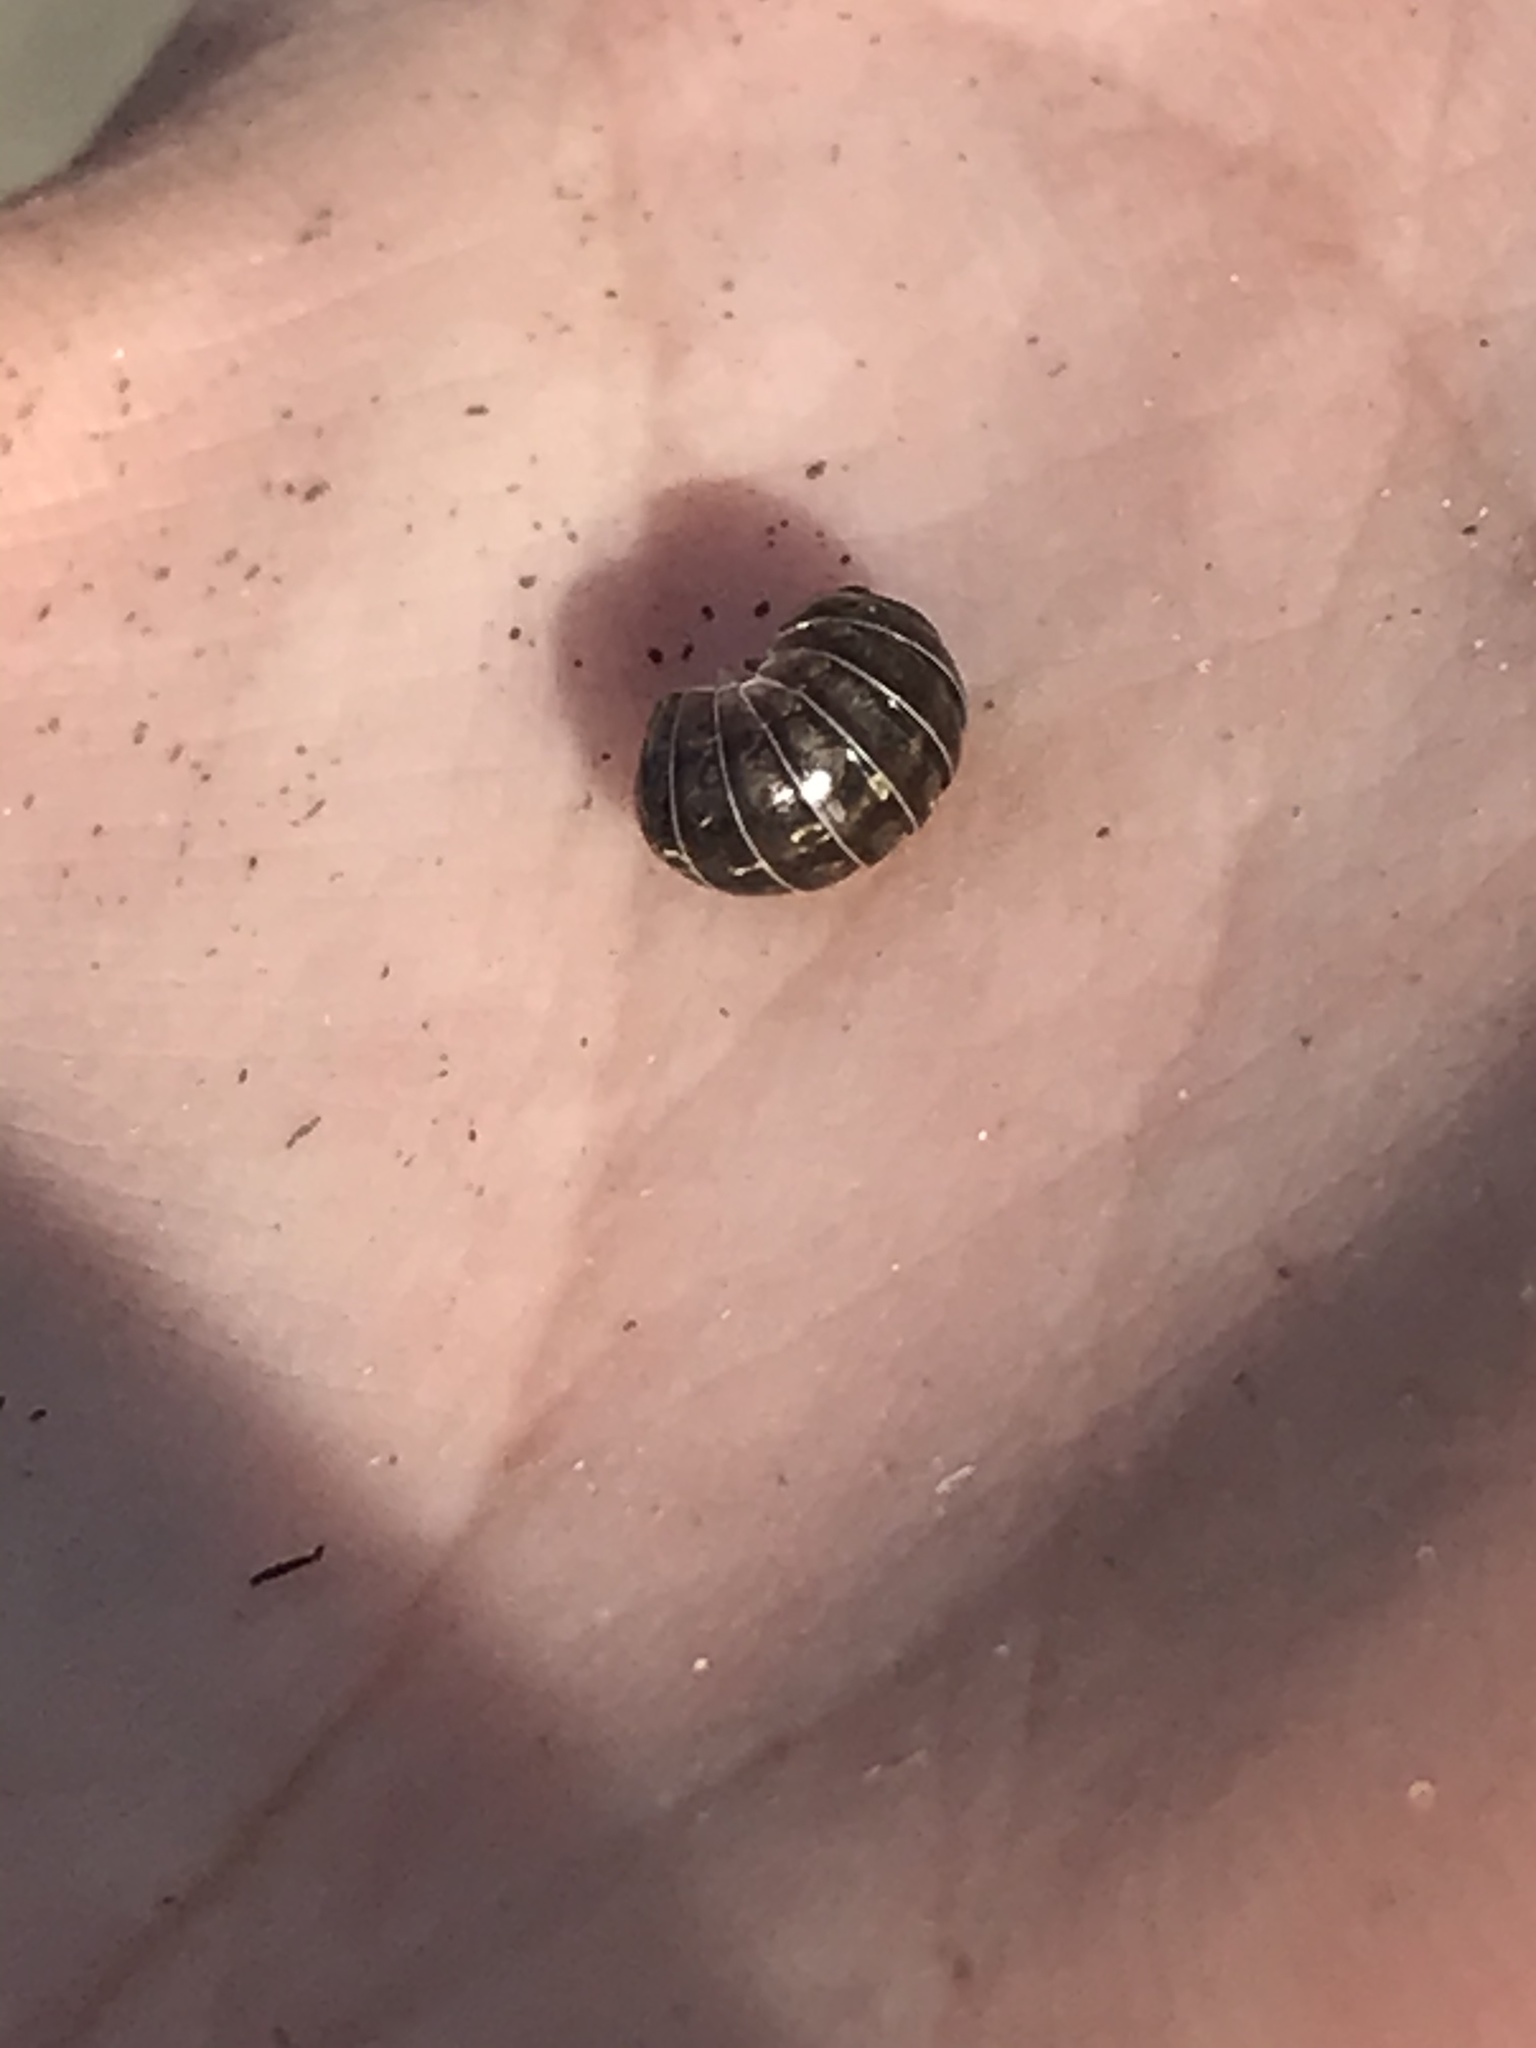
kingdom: Animalia
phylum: Arthropoda
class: Malacostraca
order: Isopoda
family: Armadillidiidae
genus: Armadillidium
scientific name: Armadillidium vulgare
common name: Common pill woodlouse
